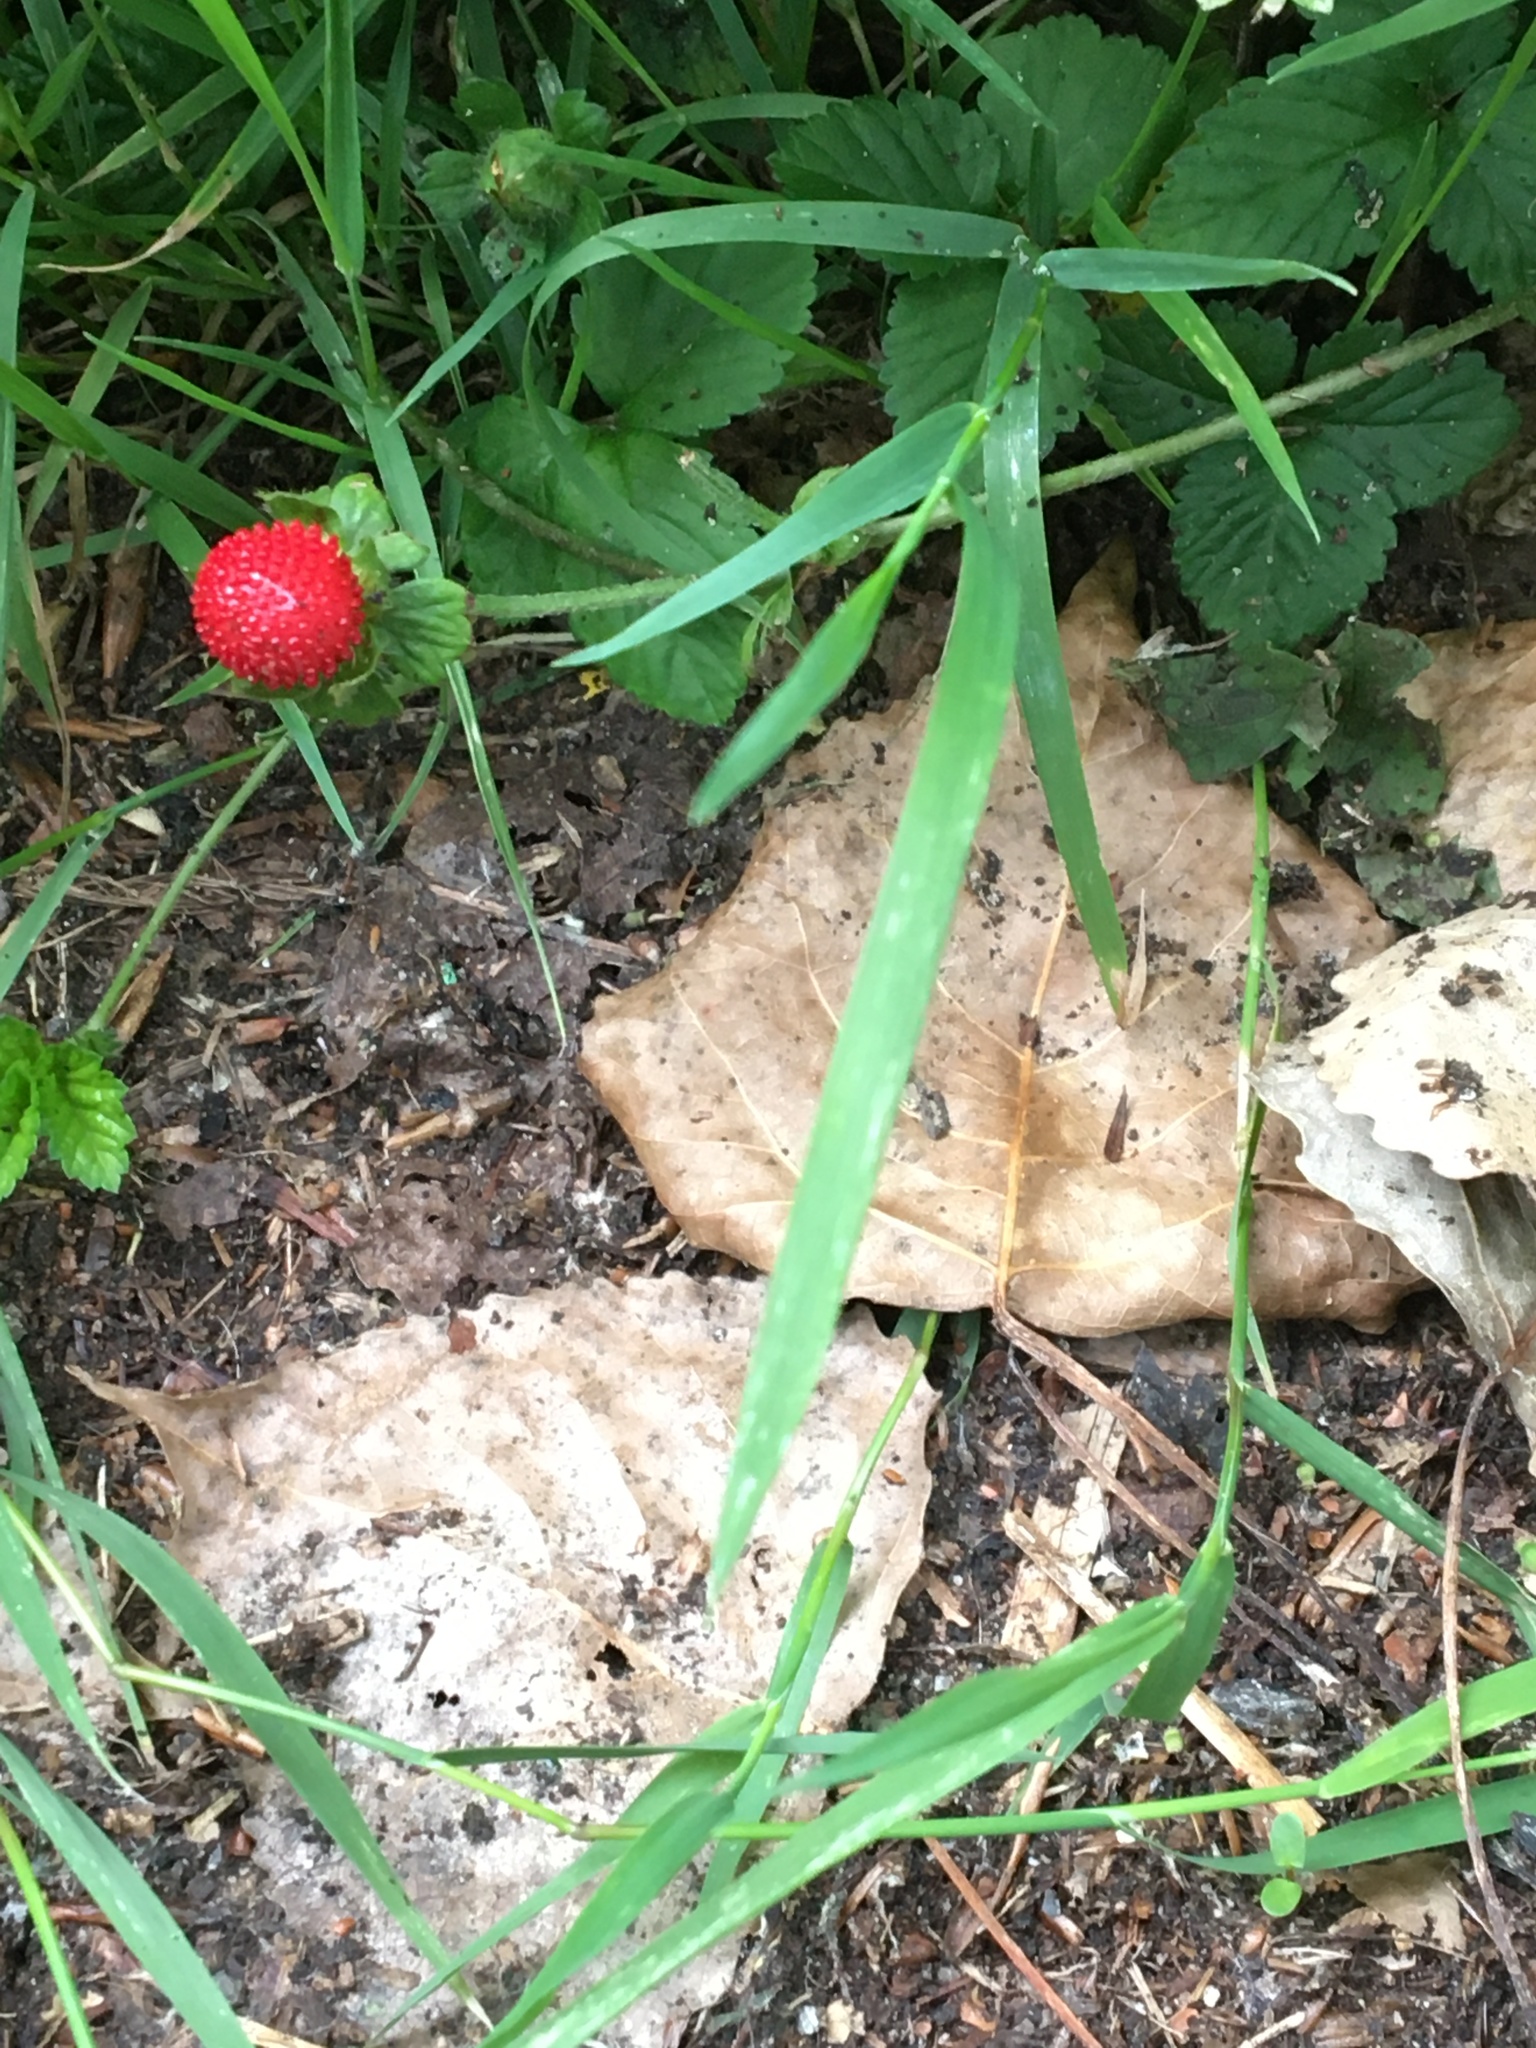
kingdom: Plantae
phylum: Tracheophyta
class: Magnoliopsida
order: Rosales
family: Rosaceae
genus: Potentilla
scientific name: Potentilla indica
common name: Yellow-flowered strawberry
